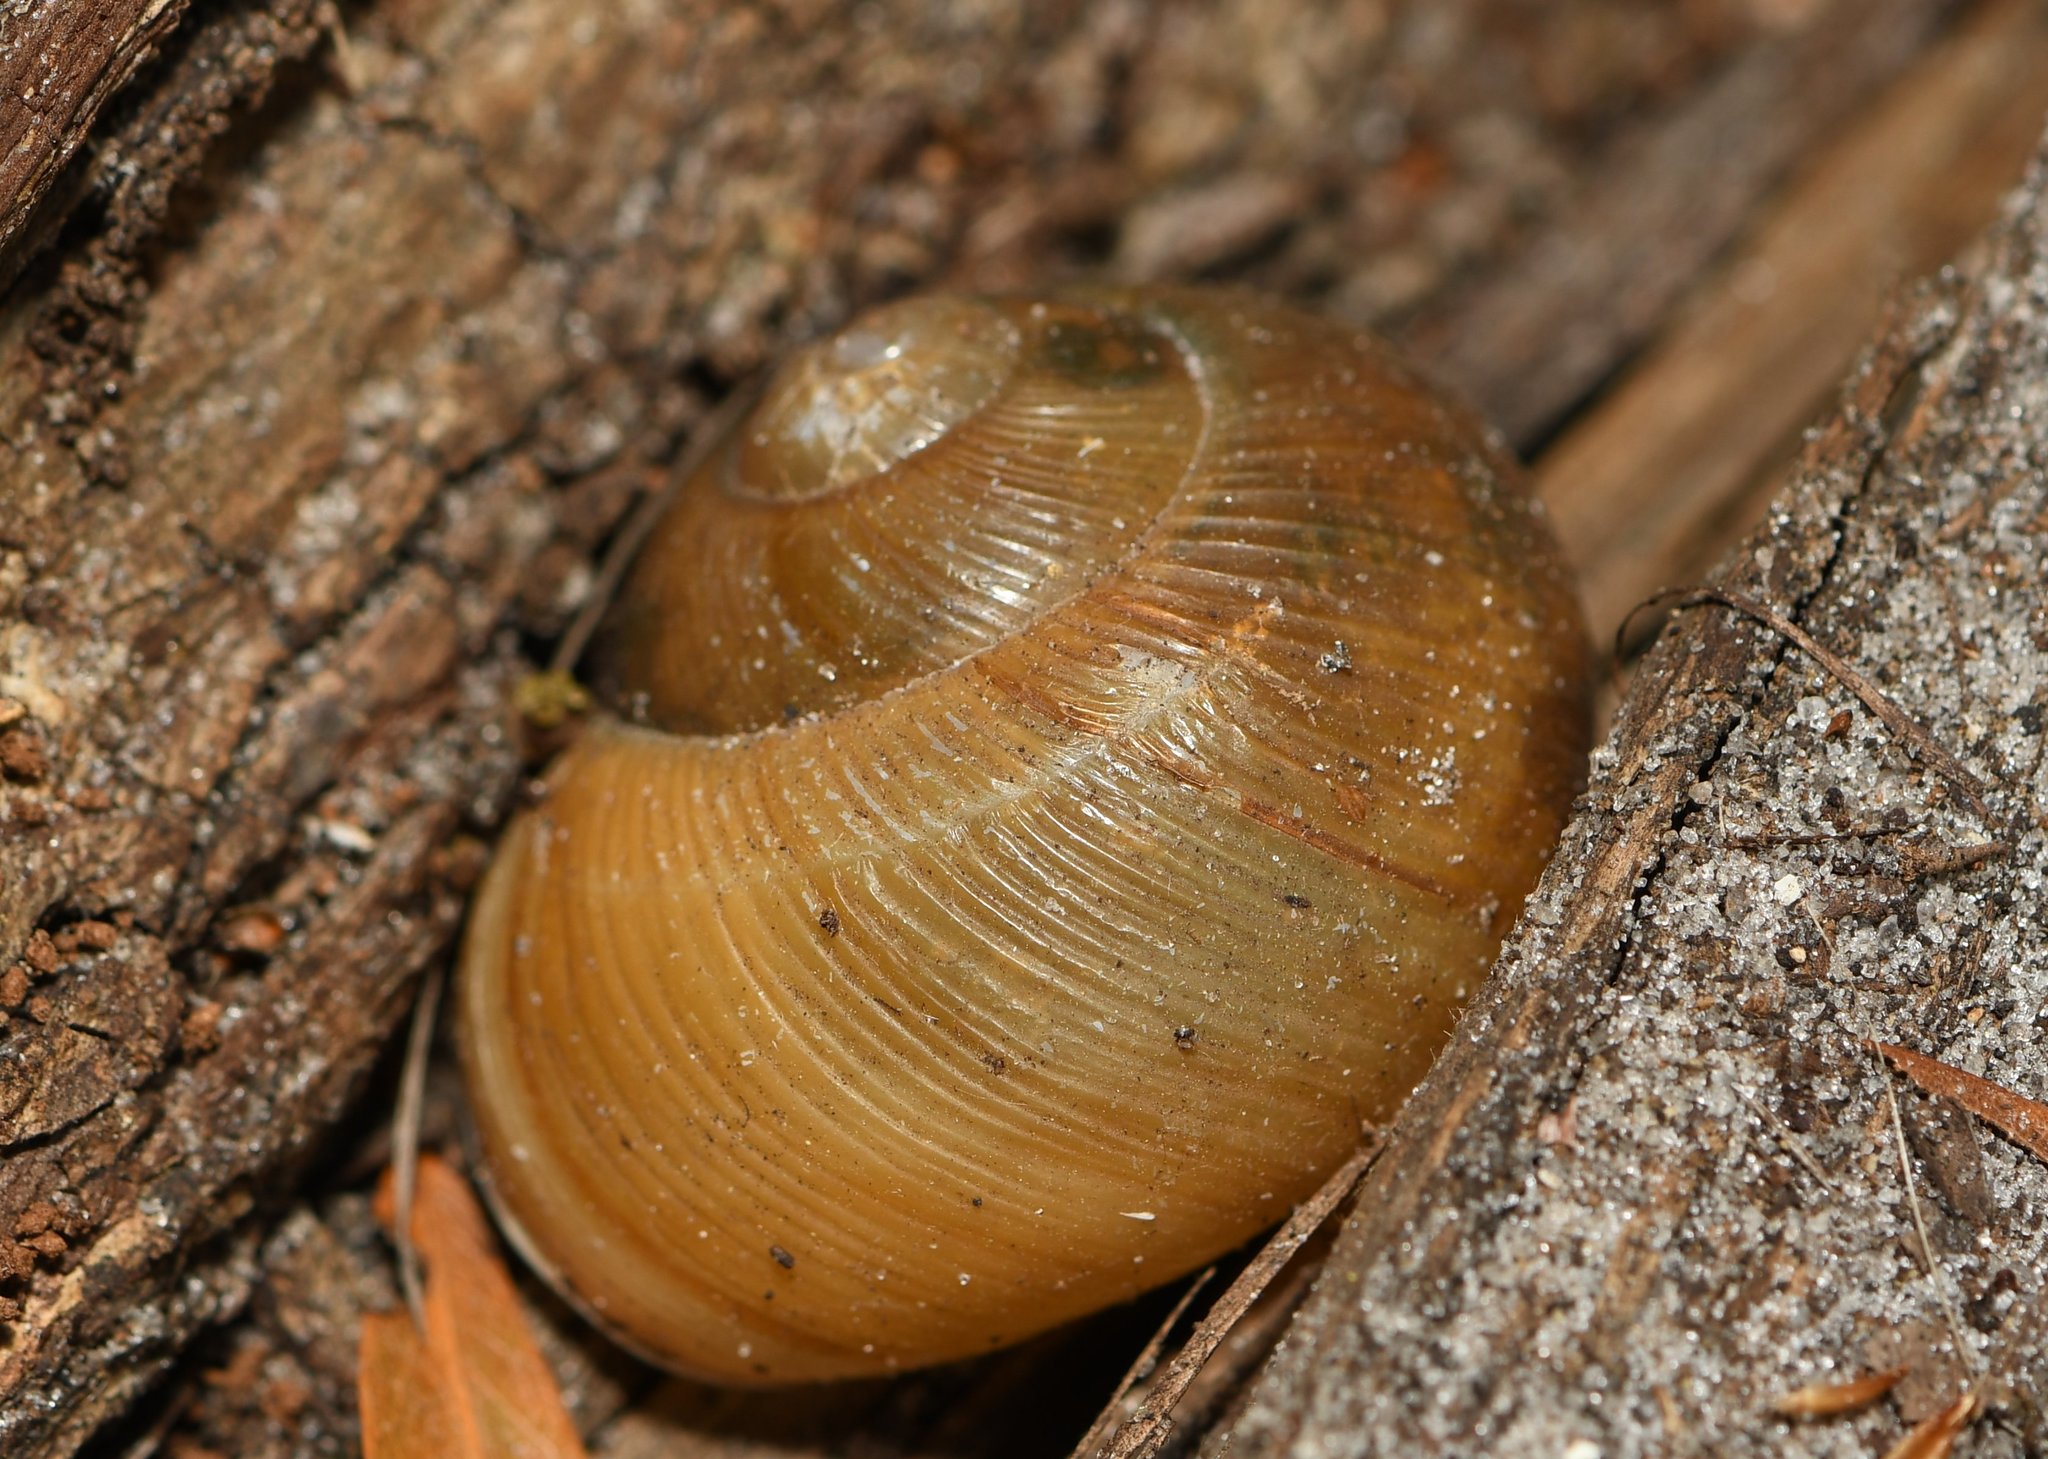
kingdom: Animalia
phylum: Mollusca
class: Gastropoda
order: Stylommatophora
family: Zachrysiidae
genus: Zachrysia
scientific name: Zachrysia provisoria
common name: Garden zachrysia
